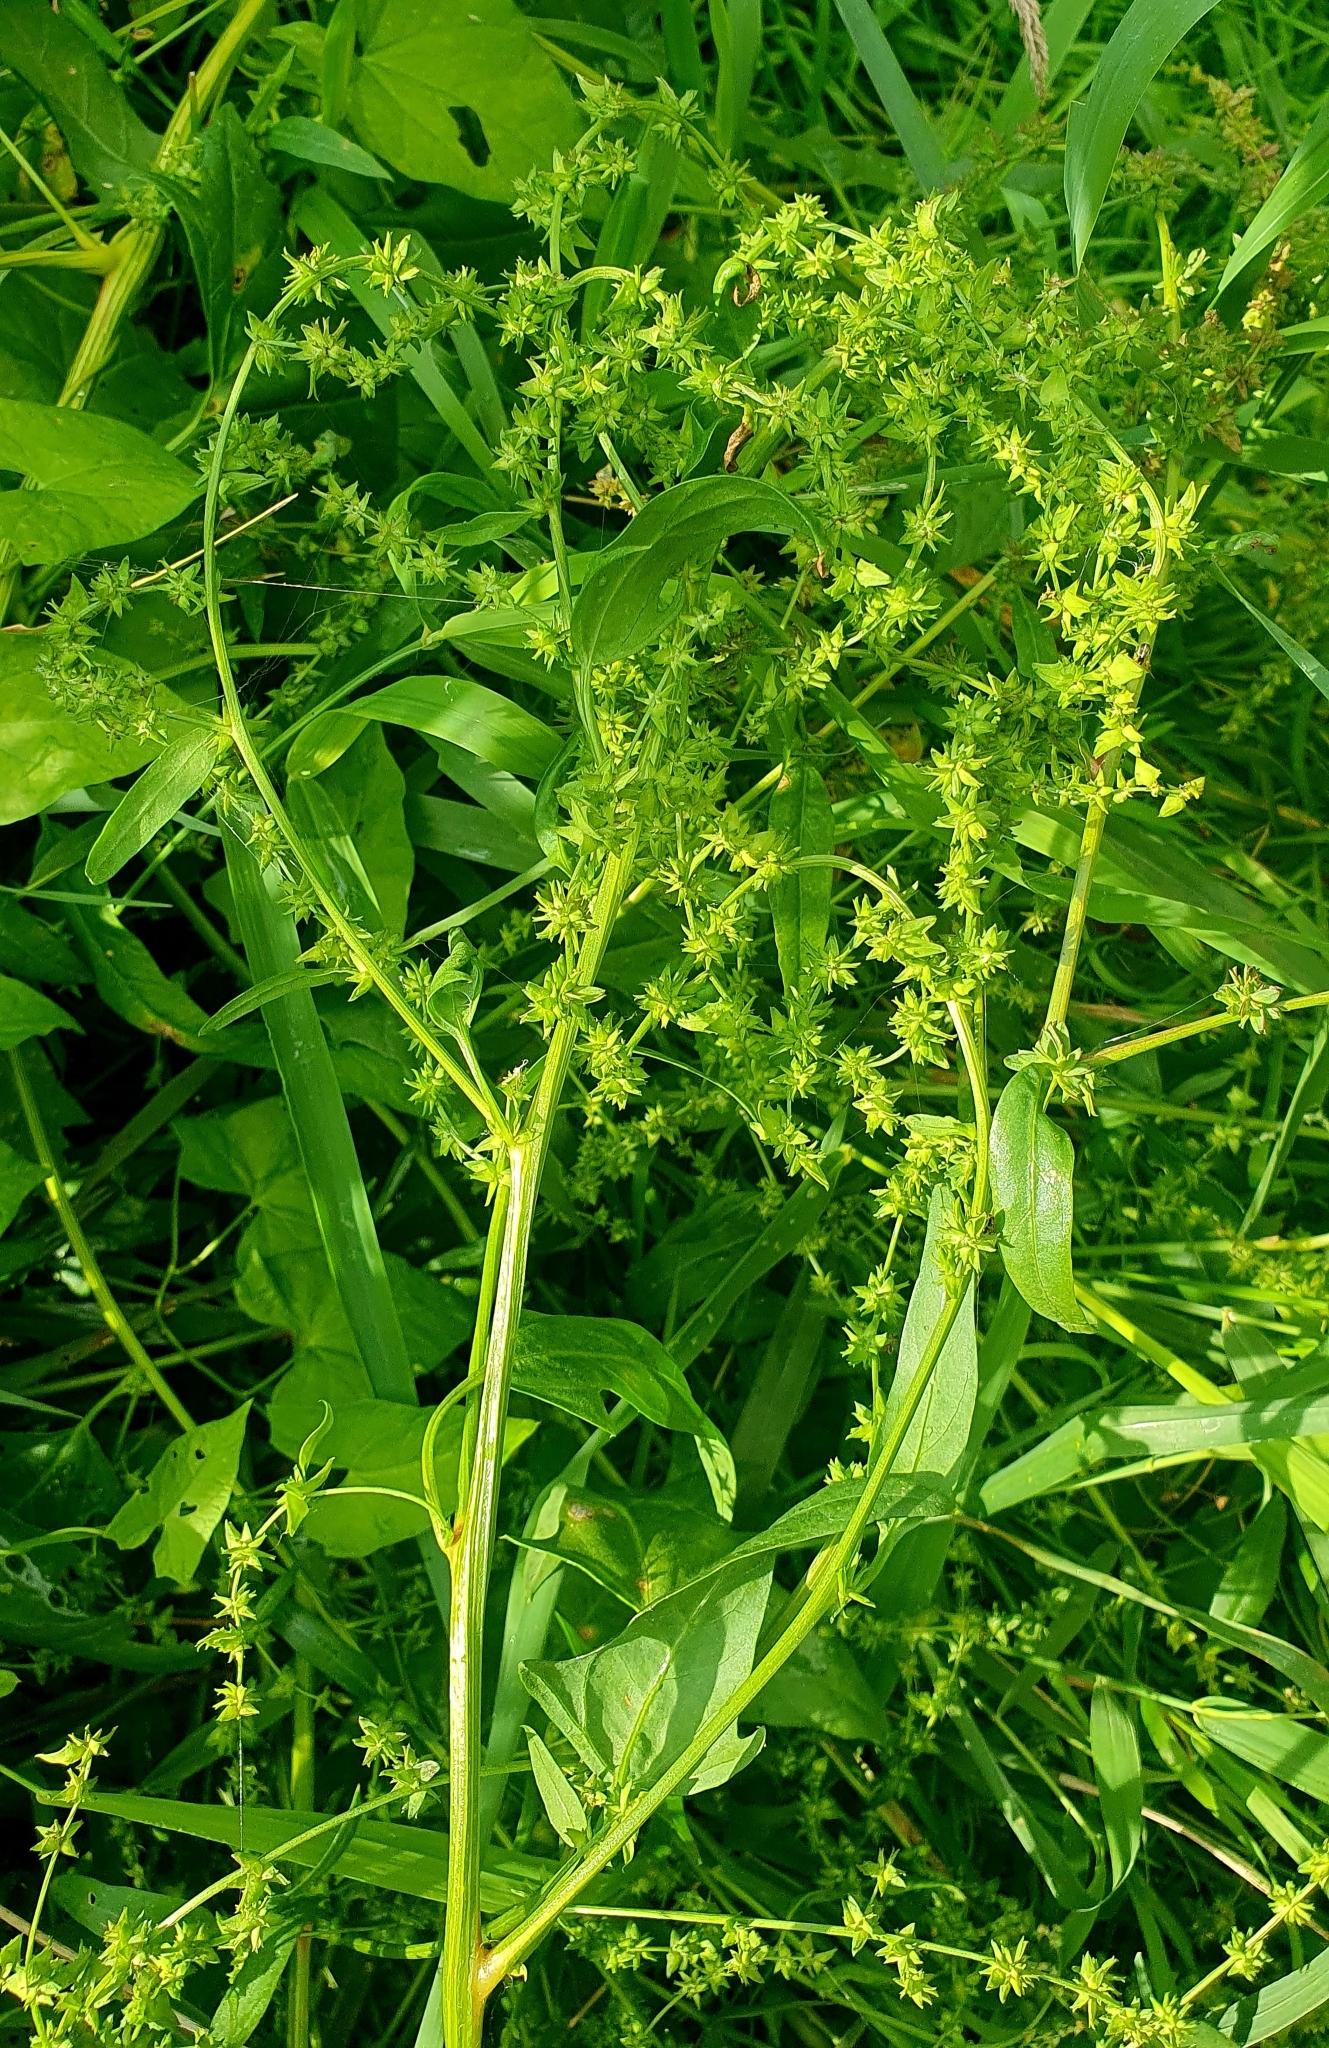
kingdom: Plantae
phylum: Tracheophyta
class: Magnoliopsida
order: Caryophyllales
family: Amaranthaceae
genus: Atriplex
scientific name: Atriplex prostrata
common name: Spear-leaved orache
